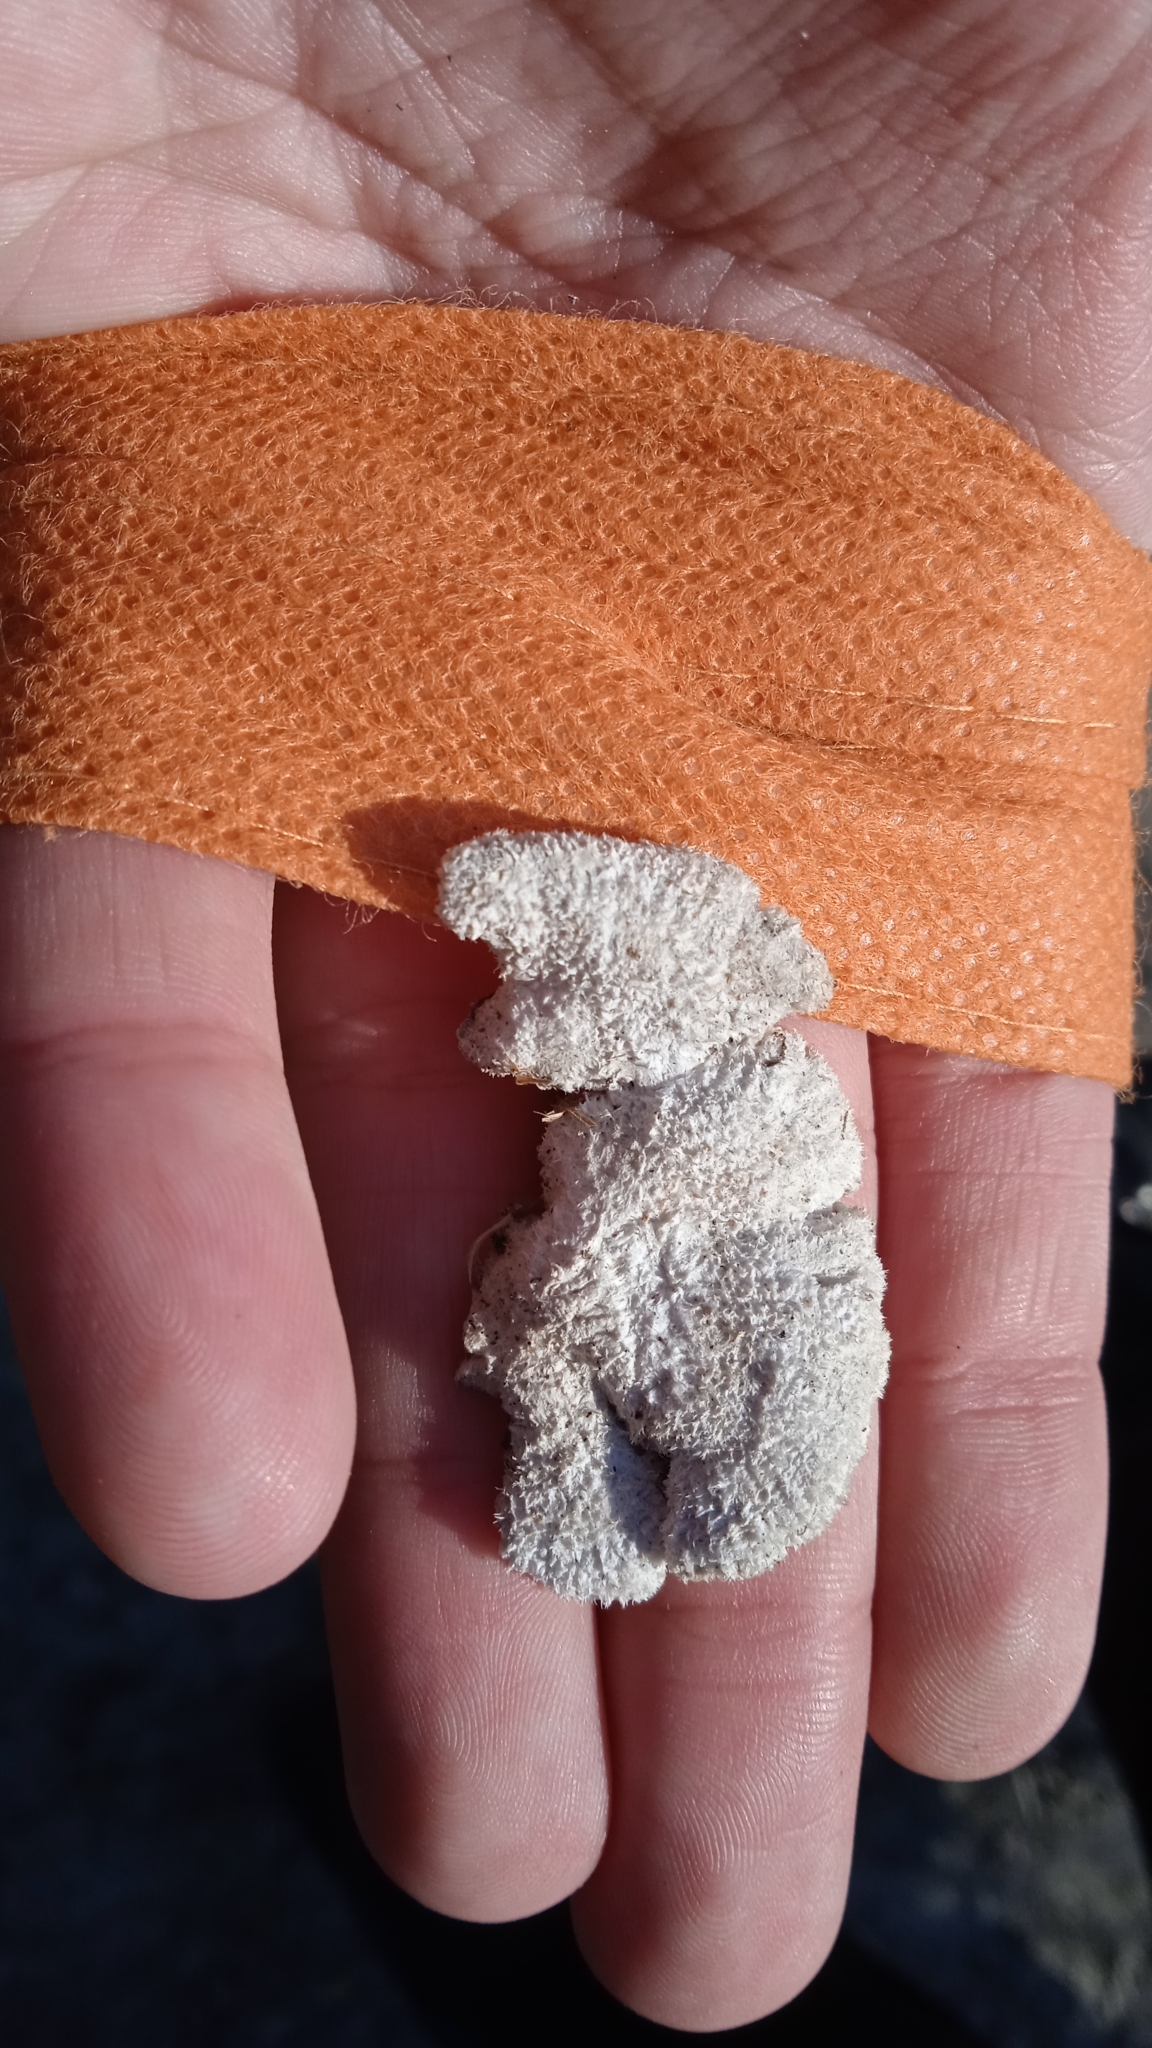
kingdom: Fungi
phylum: Basidiomycota
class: Agaricomycetes
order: Agaricales
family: Schizophyllaceae
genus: Schizophyllum
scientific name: Schizophyllum commune
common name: Common porecrust
